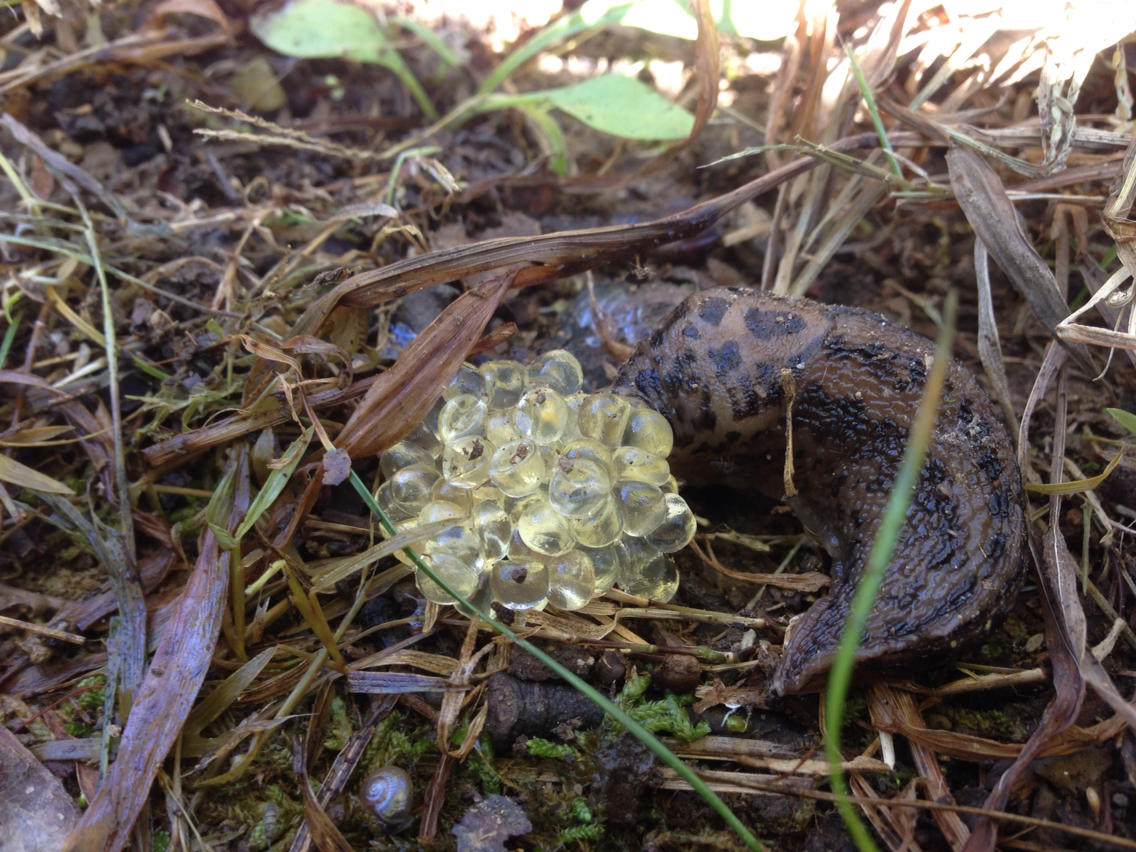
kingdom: Animalia
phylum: Mollusca
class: Gastropoda
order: Stylommatophora
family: Limacidae
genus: Limax
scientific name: Limax maximus
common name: Great grey slug
